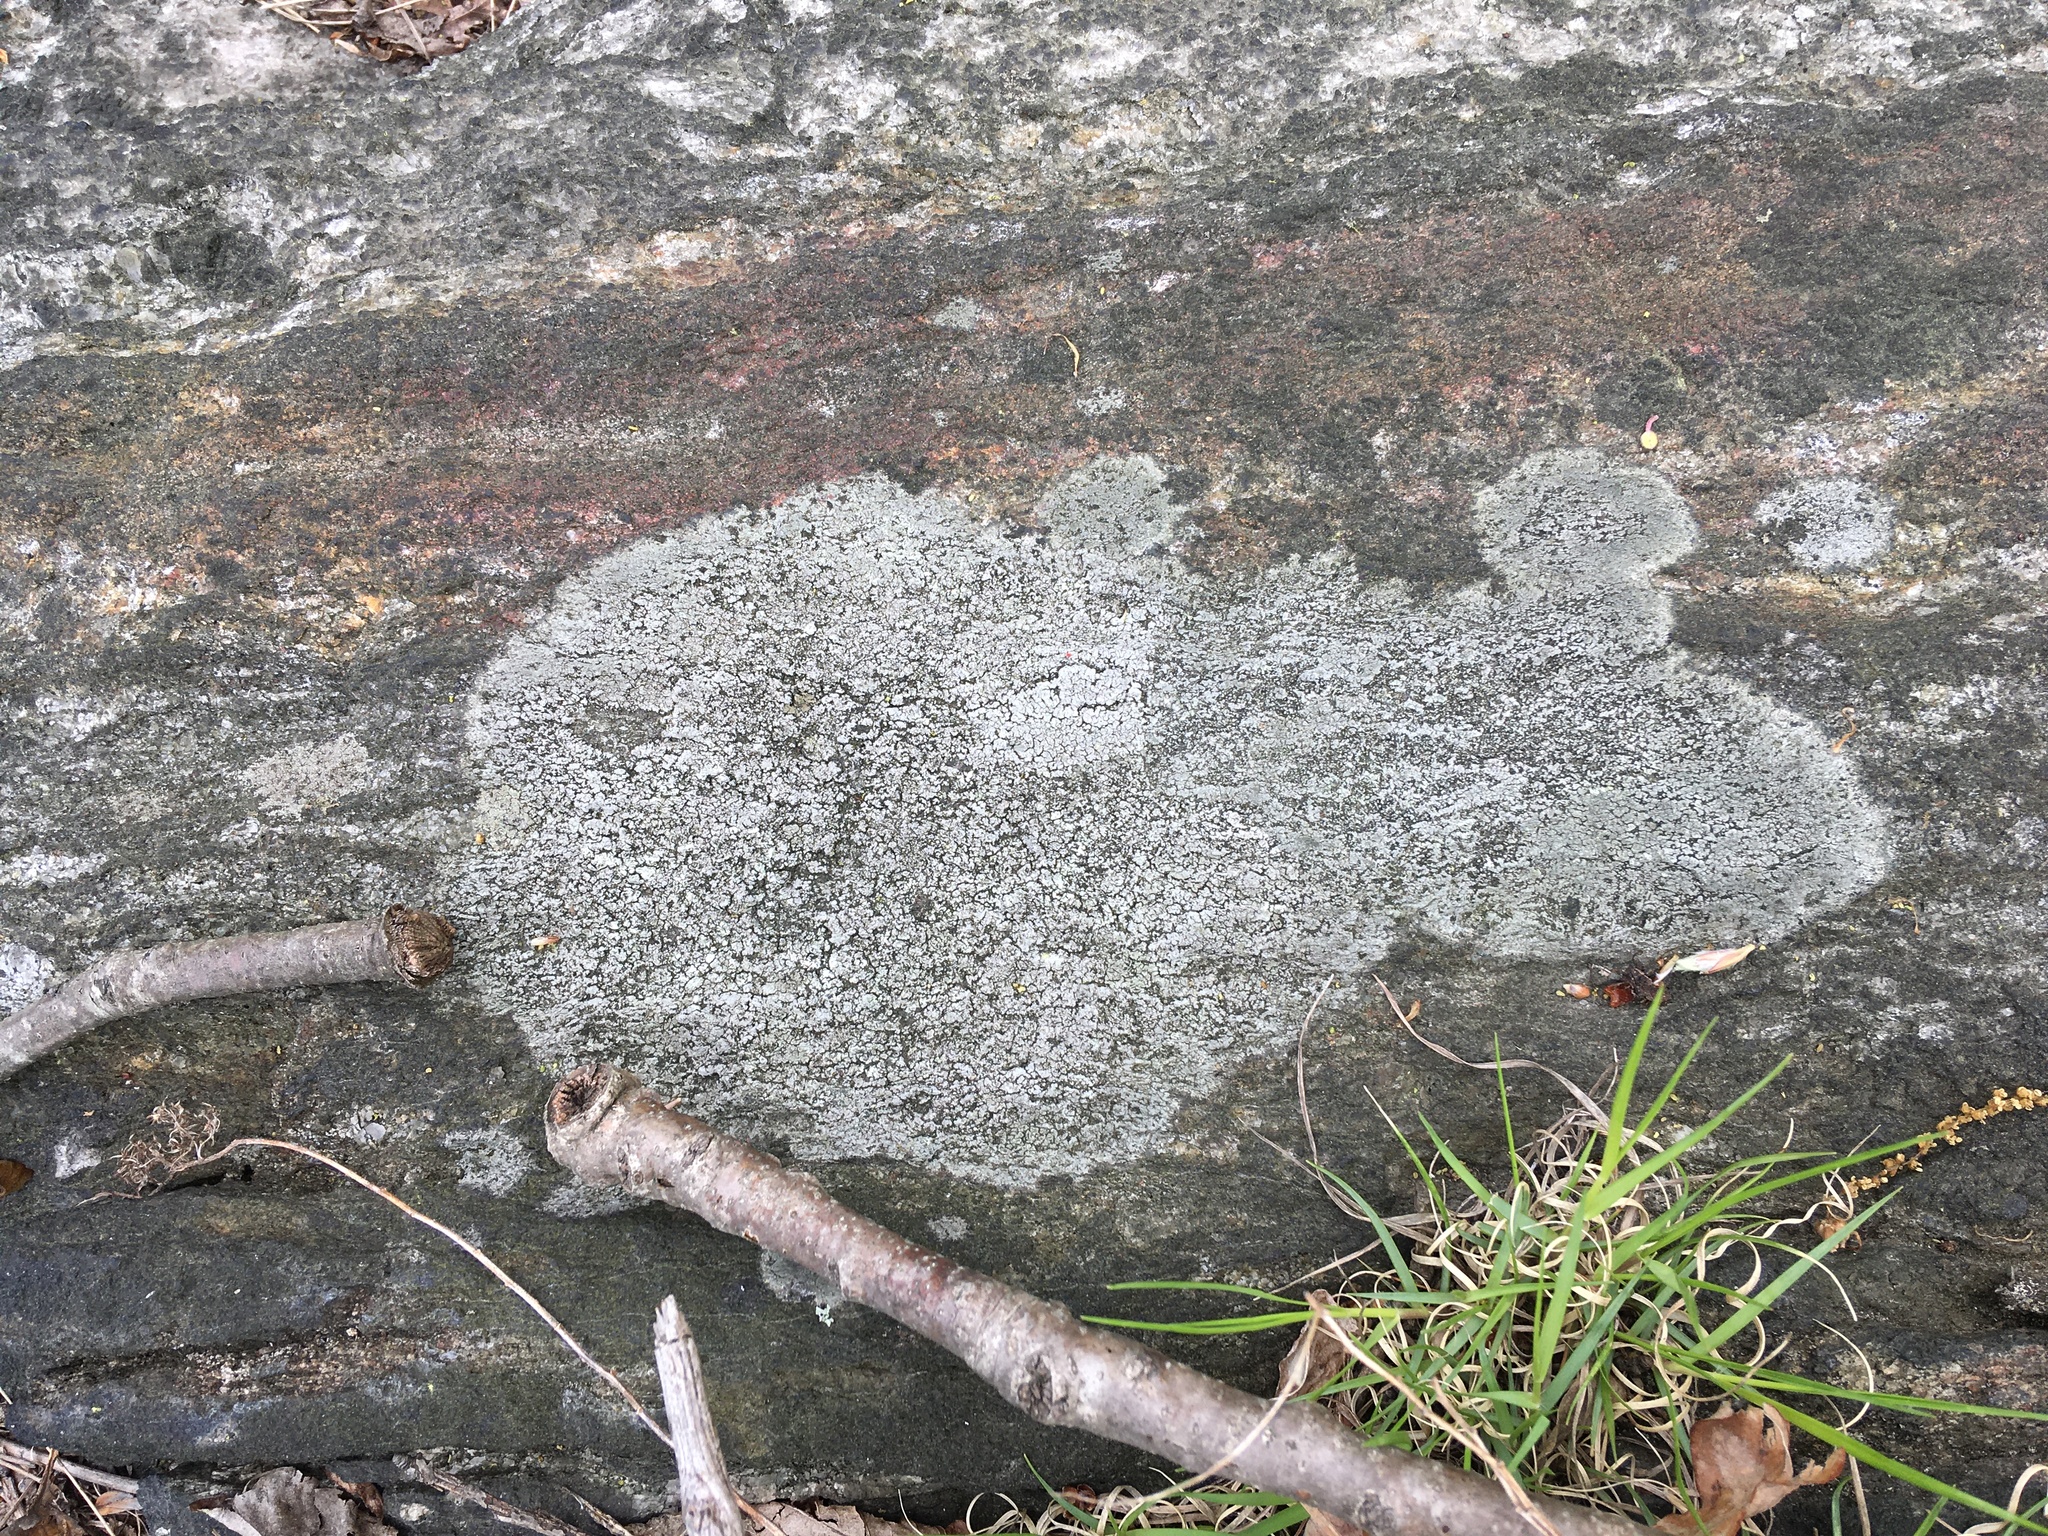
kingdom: Fungi
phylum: Ascomycota
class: Lecanoromycetes
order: Lecideales
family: Lecideaceae
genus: Porpidia
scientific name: Porpidia albocaerulescens
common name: Smokey-eyed boulder lichen
